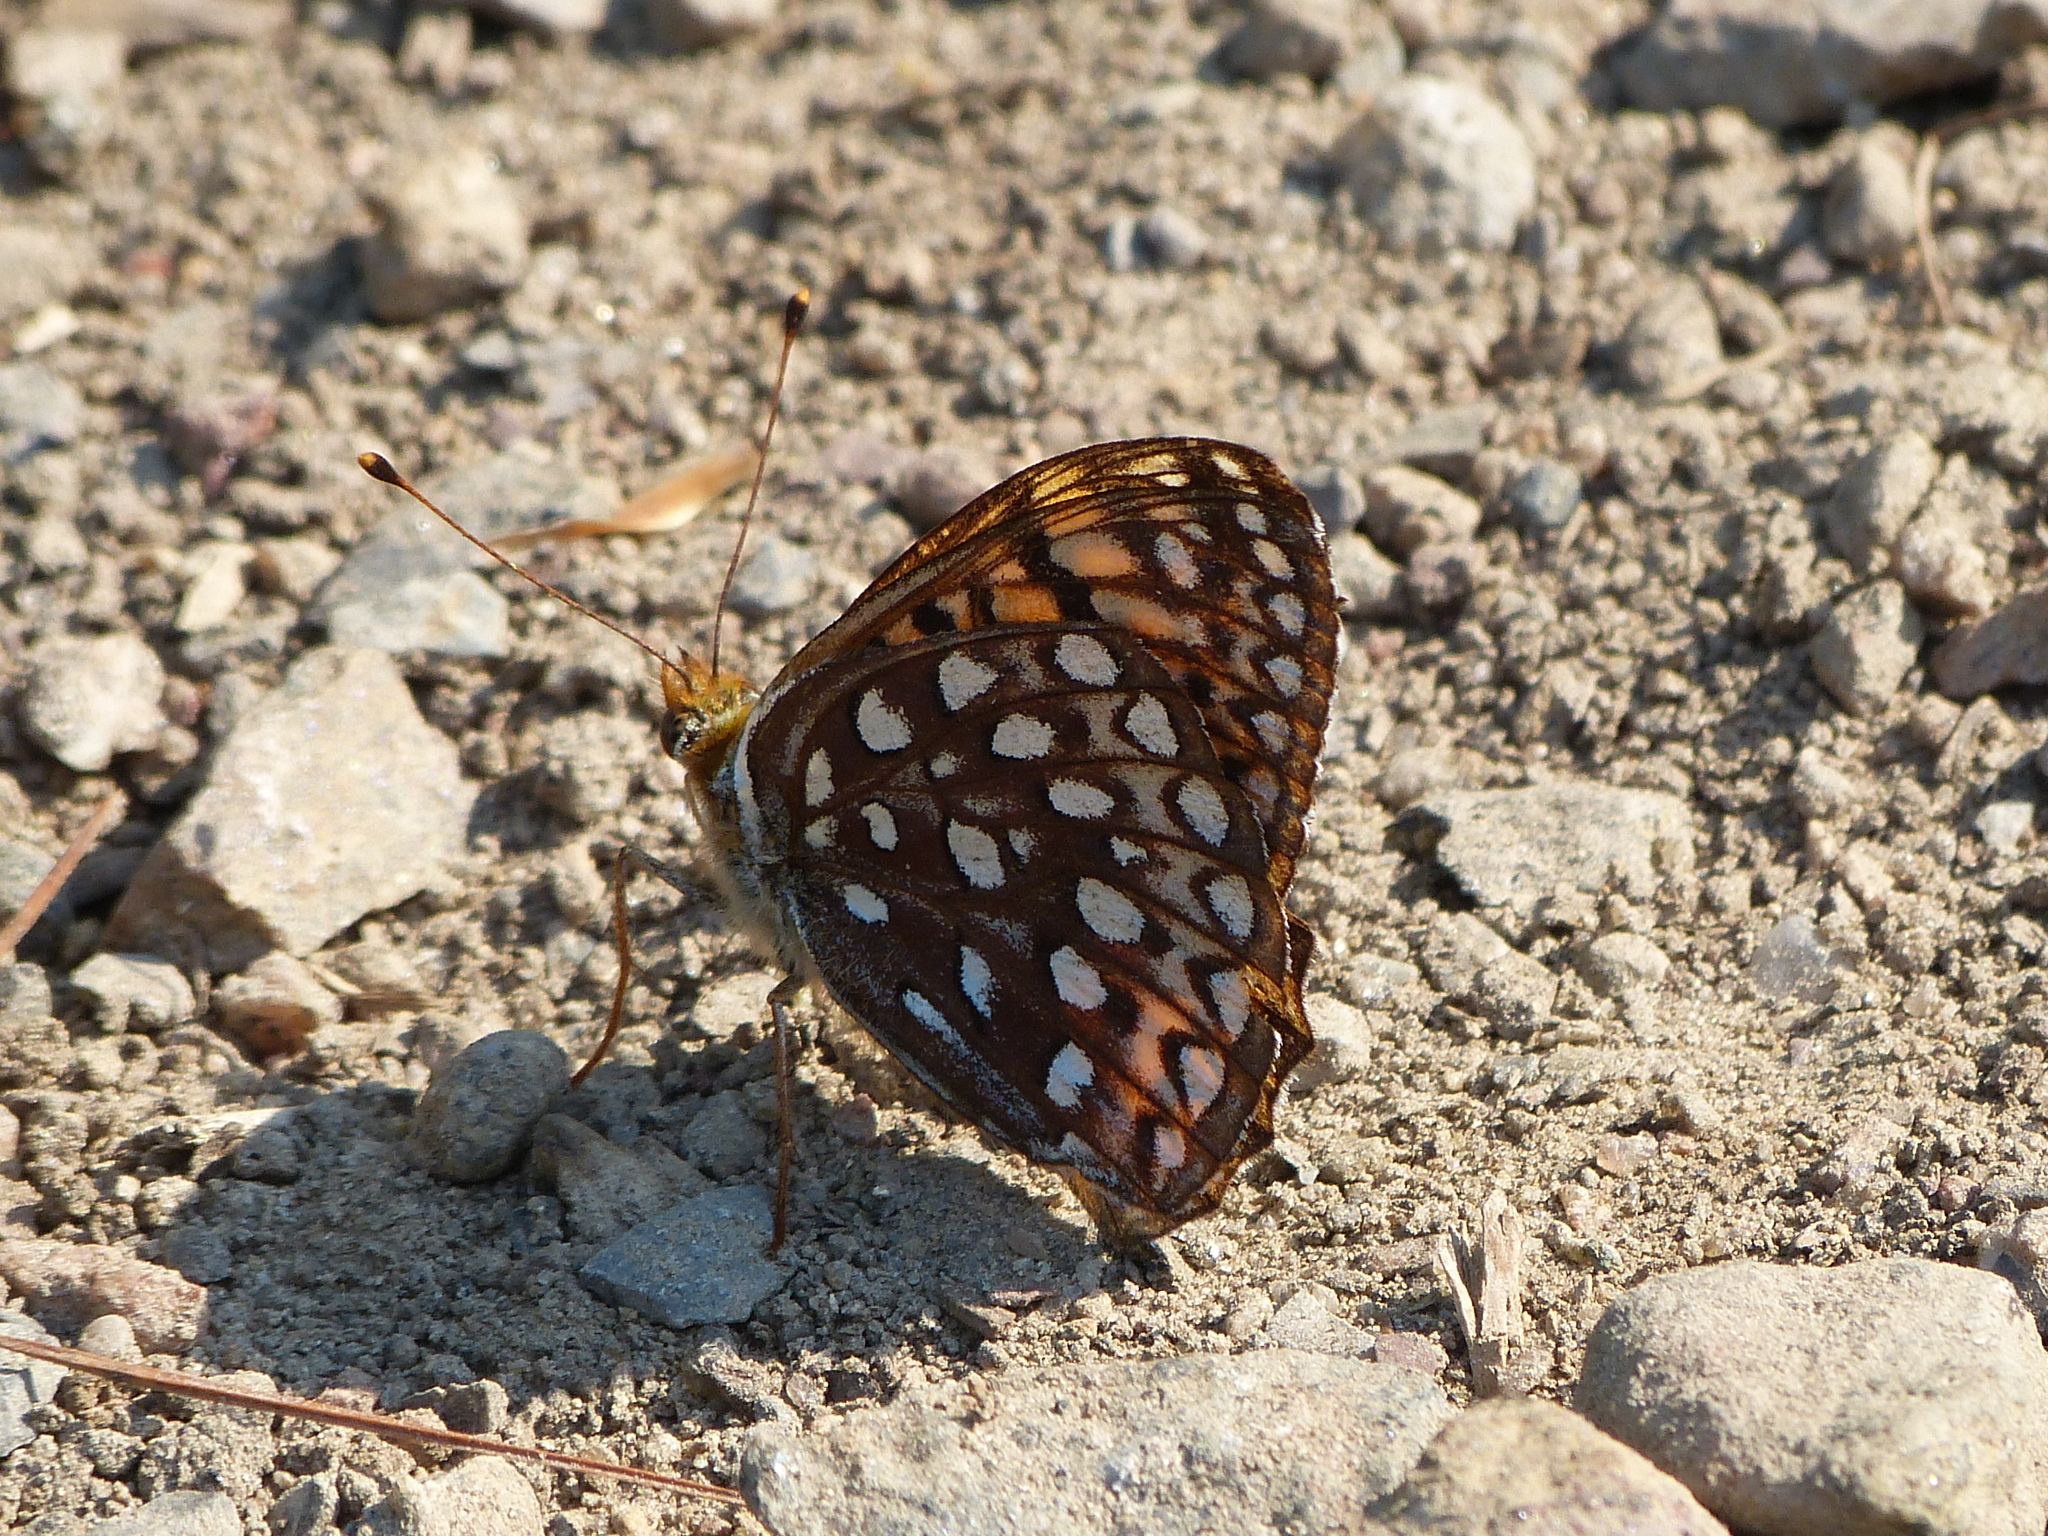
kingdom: Animalia
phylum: Arthropoda
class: Insecta
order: Lepidoptera
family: Nymphalidae
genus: Speyeria
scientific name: Speyeria atlantis
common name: Atlantis fritillary
